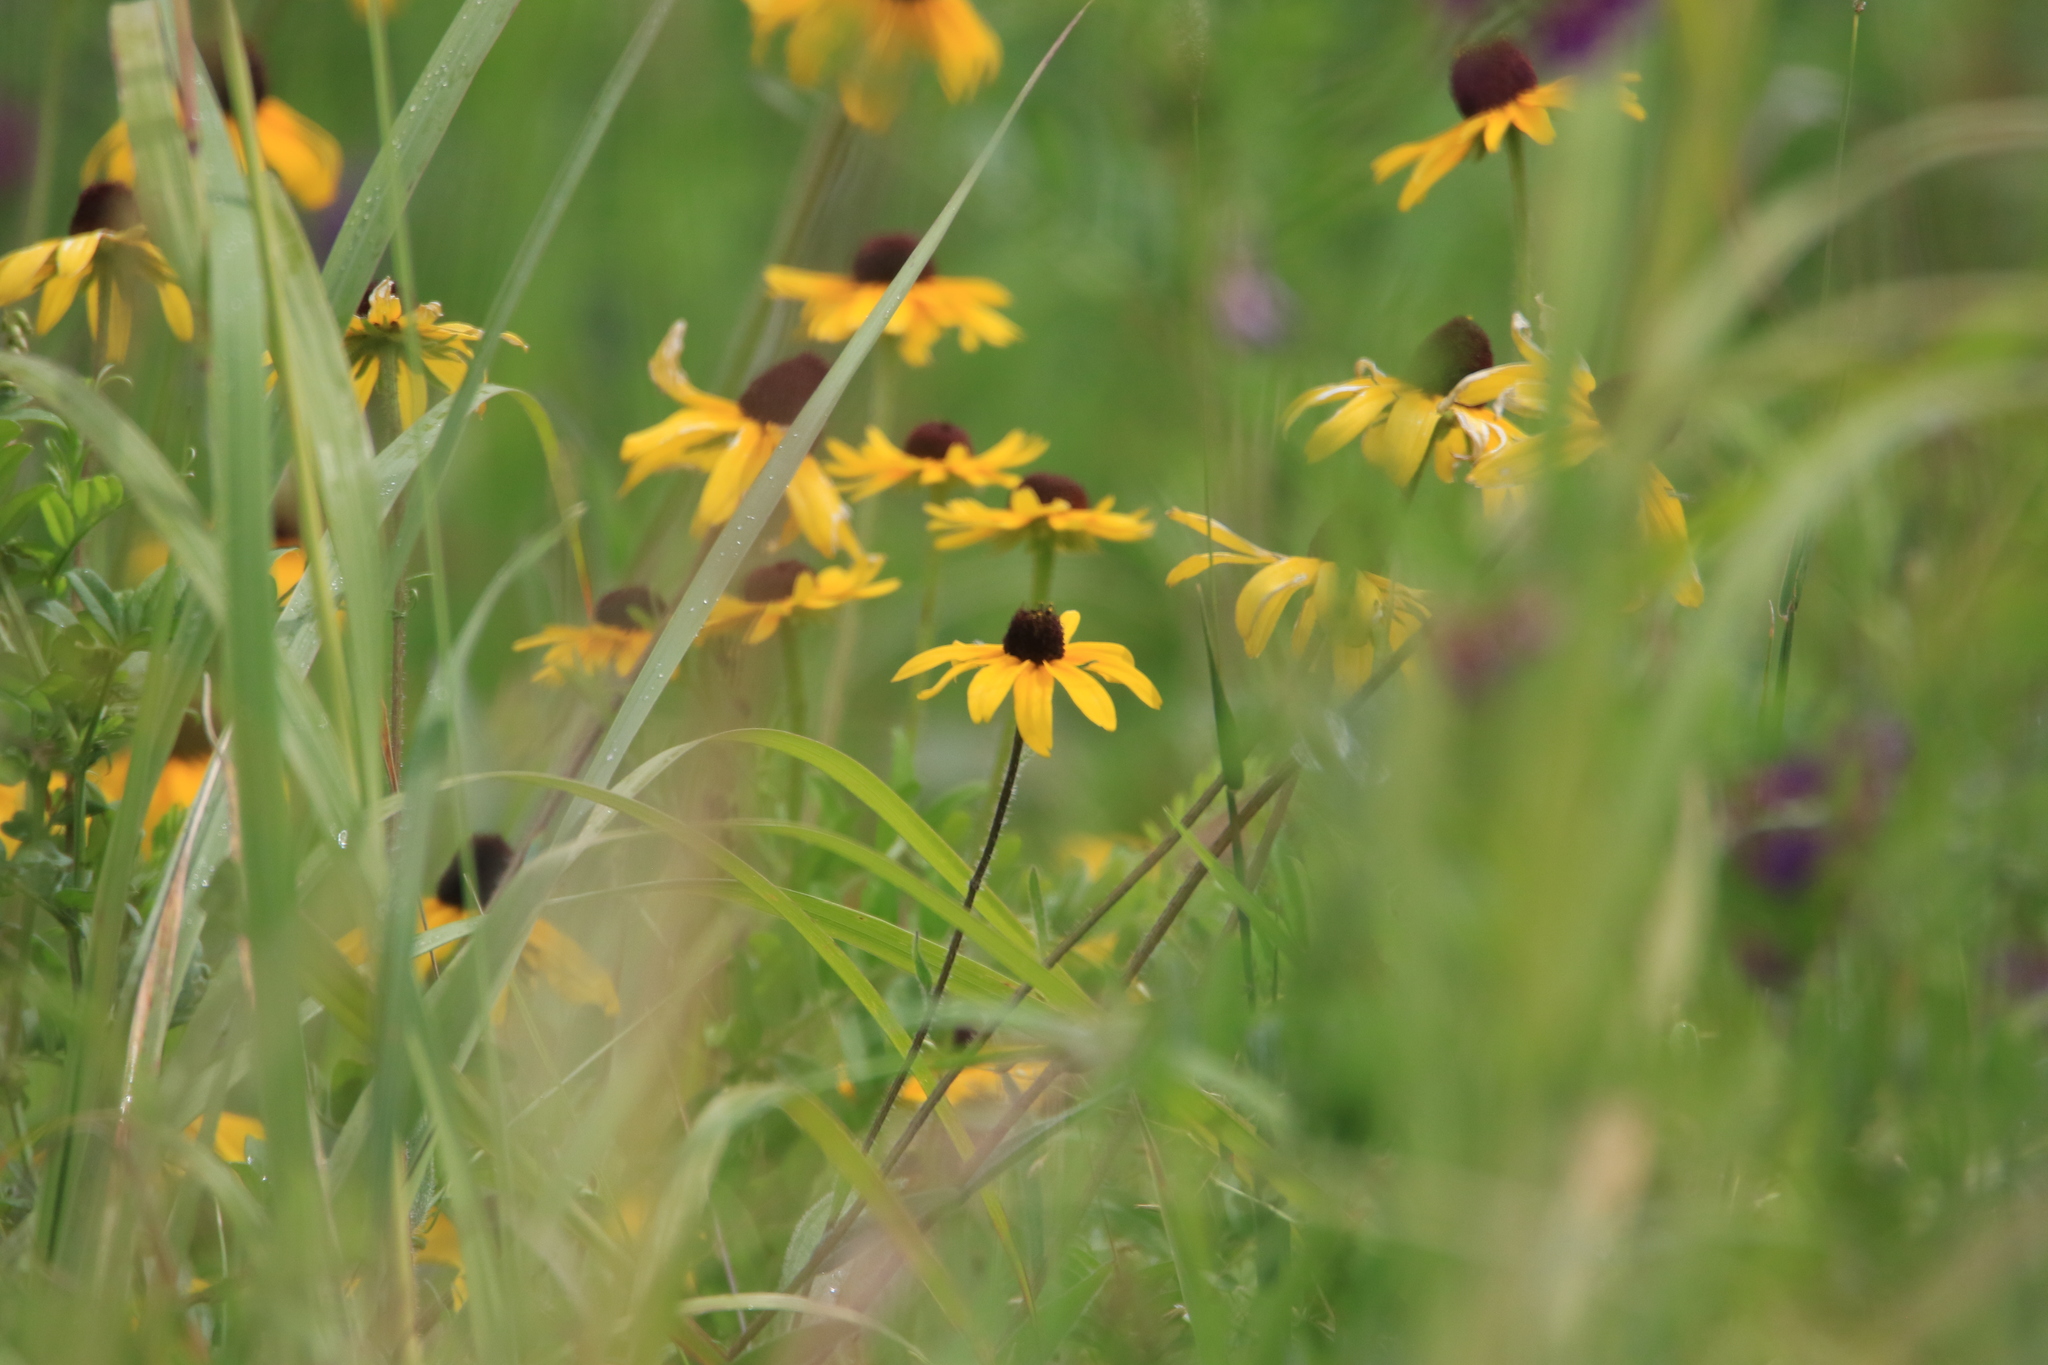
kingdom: Plantae
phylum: Tracheophyta
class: Magnoliopsida
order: Asterales
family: Asteraceae
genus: Rudbeckia
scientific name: Rudbeckia hirta
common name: Black-eyed-susan
